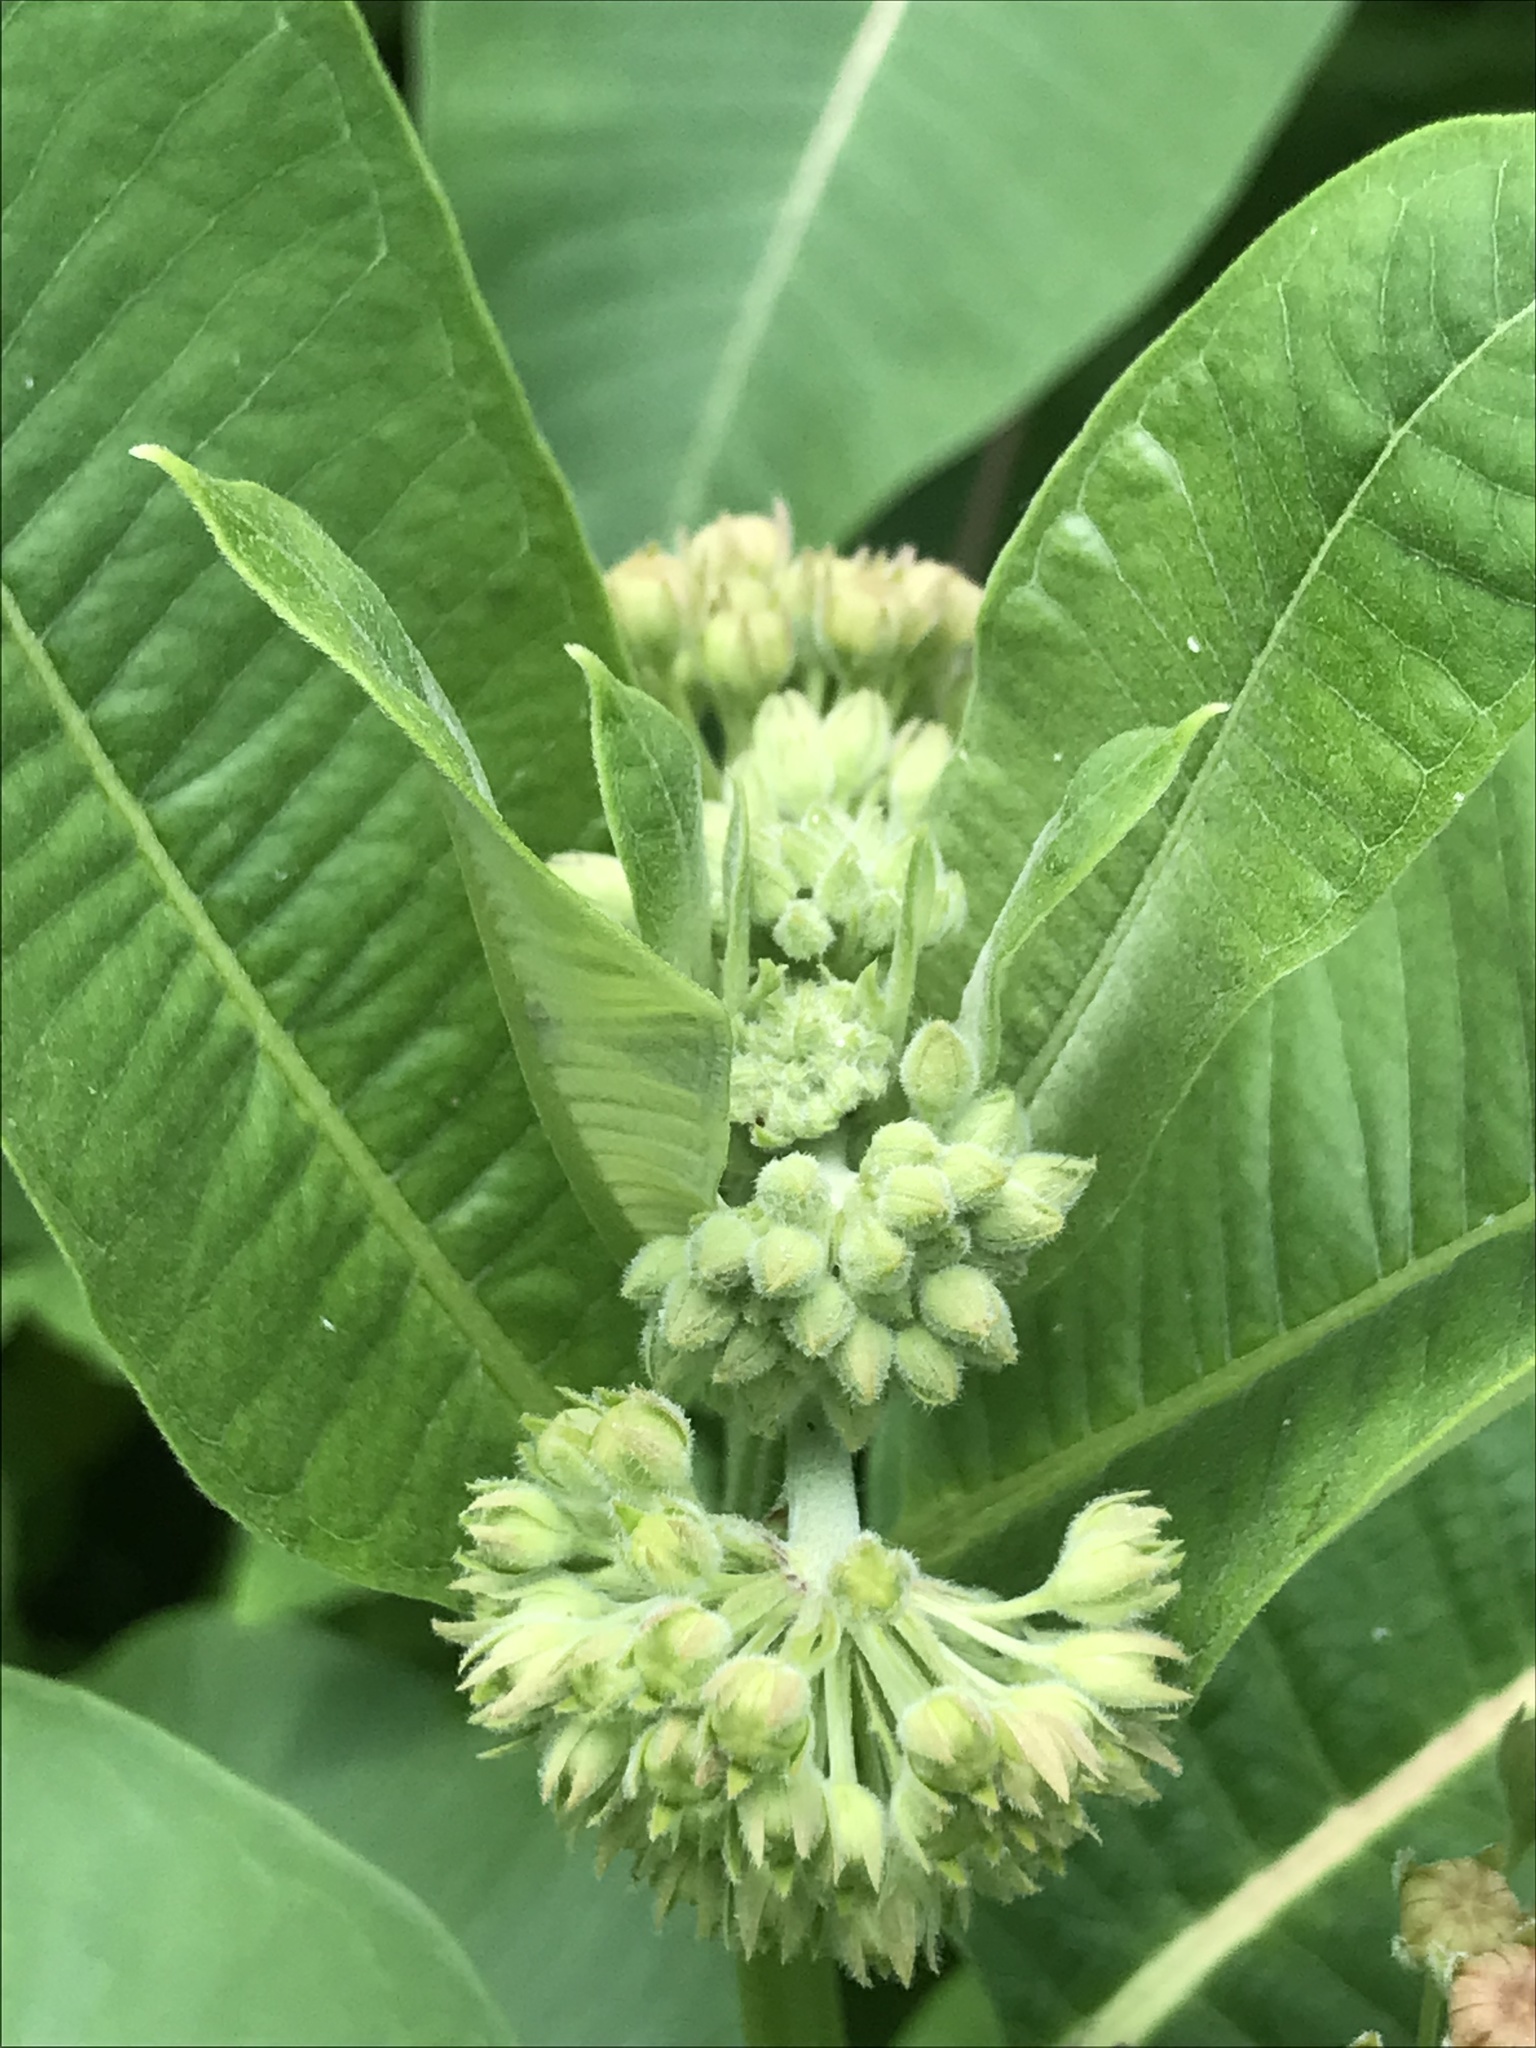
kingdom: Plantae
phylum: Tracheophyta
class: Magnoliopsida
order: Gentianales
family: Apocynaceae
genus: Asclepias
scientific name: Asclepias syriaca
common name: Common milkweed
